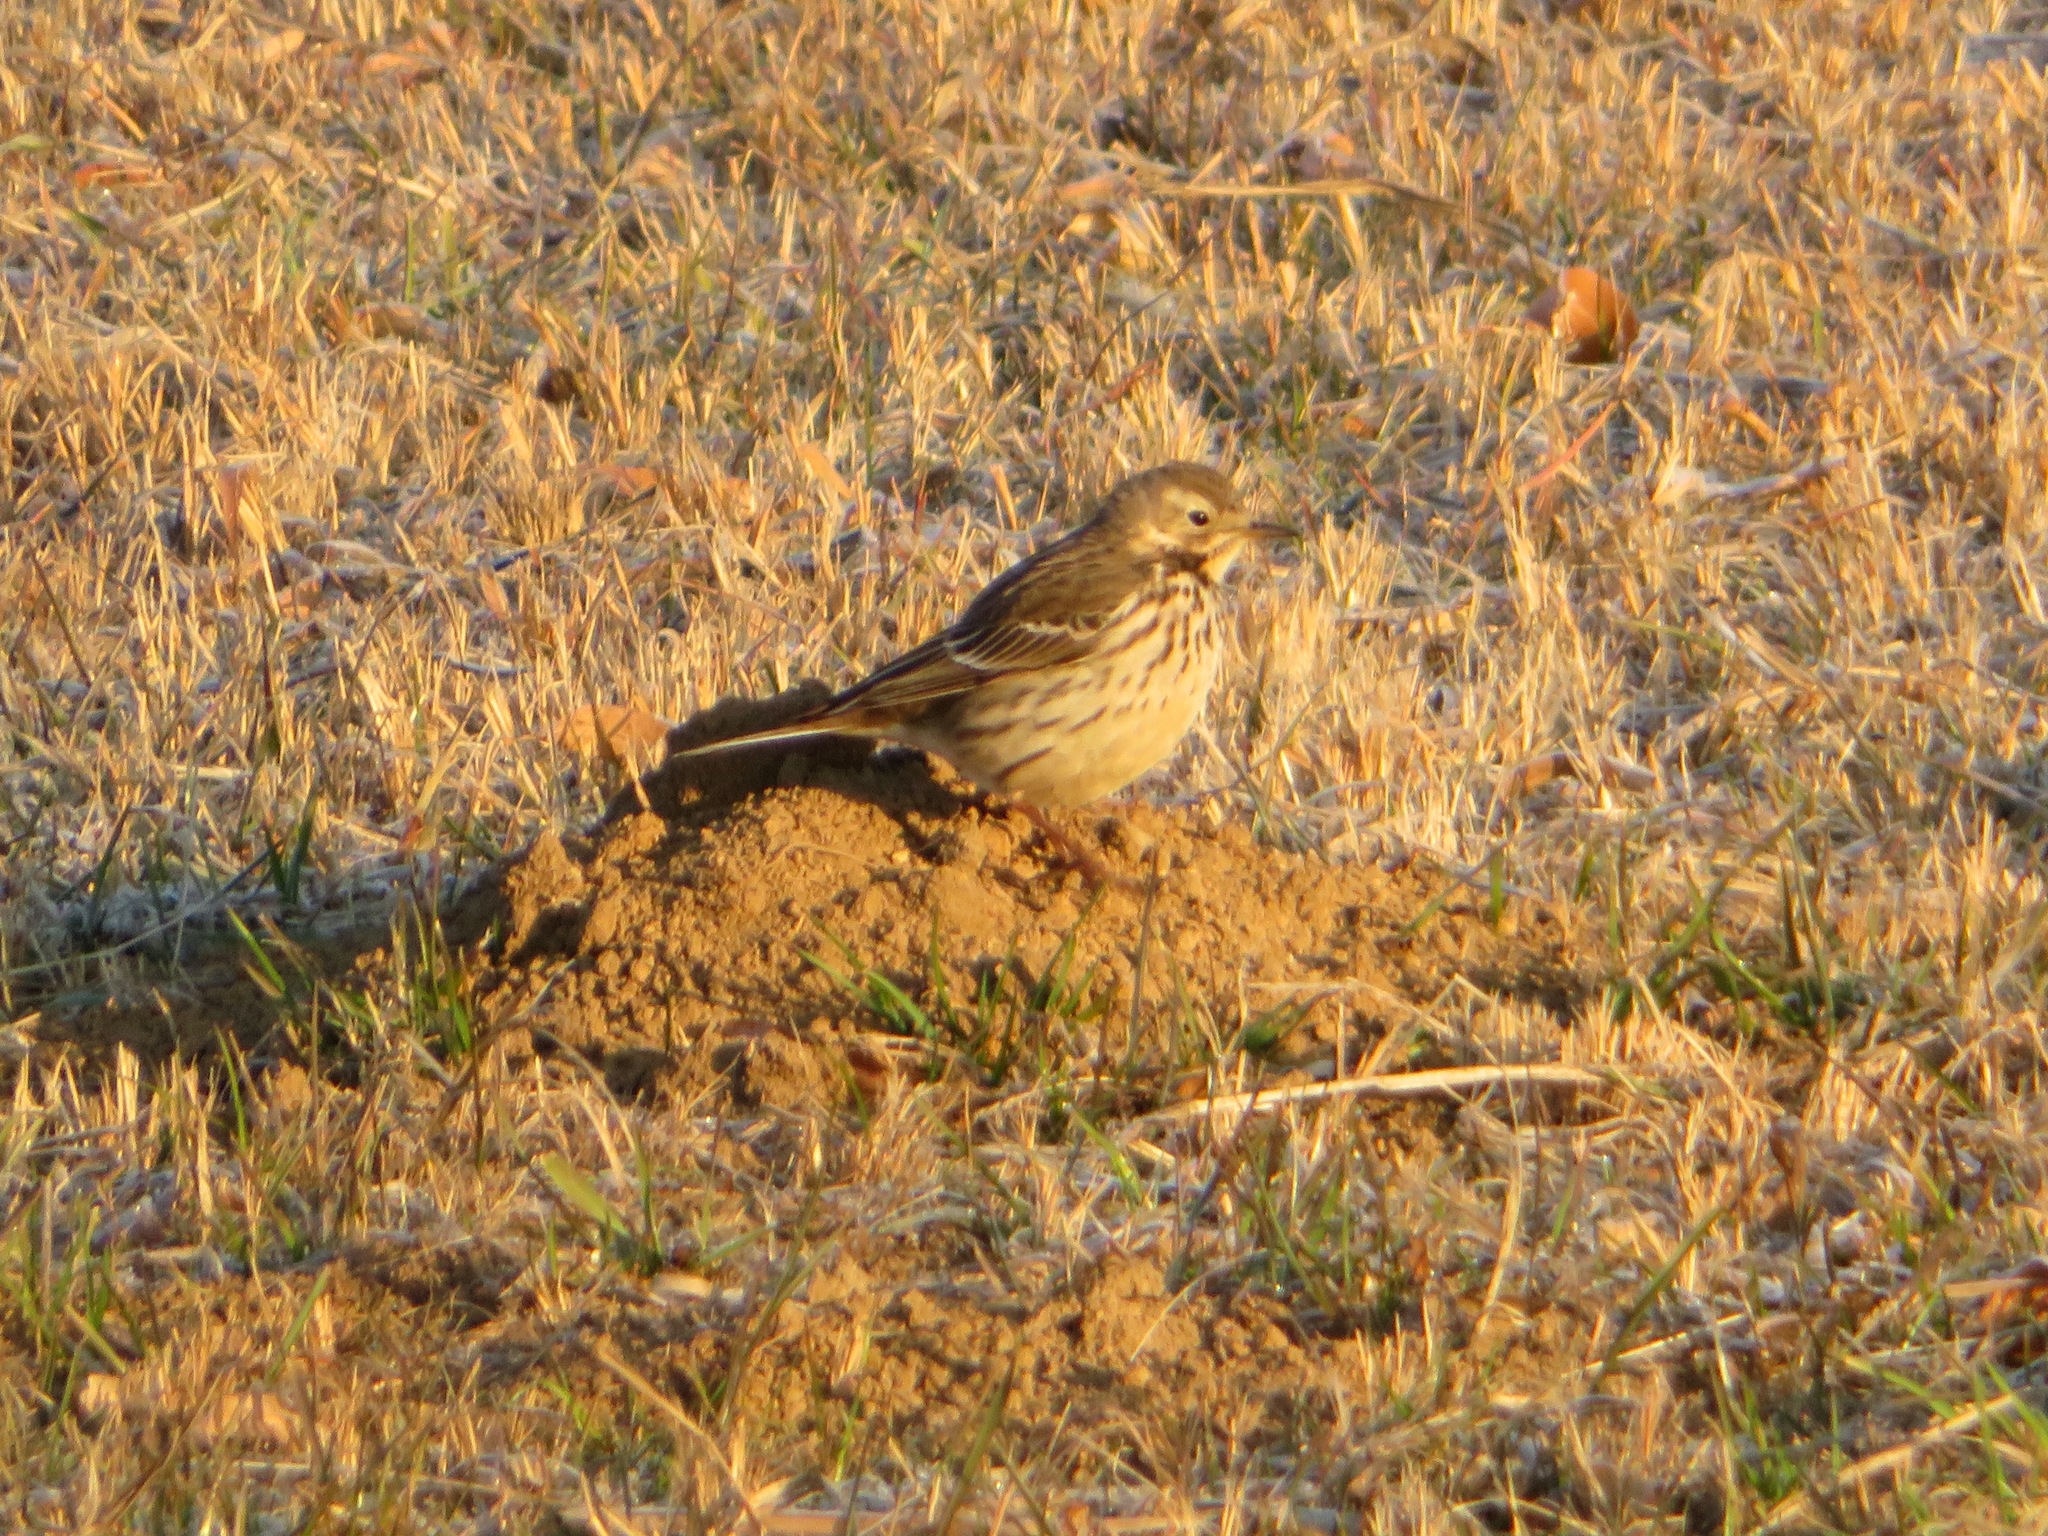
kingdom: Animalia
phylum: Chordata
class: Aves
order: Passeriformes
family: Motacillidae
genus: Anthus
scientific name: Anthus rubescens
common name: Buff-bellied pipit
